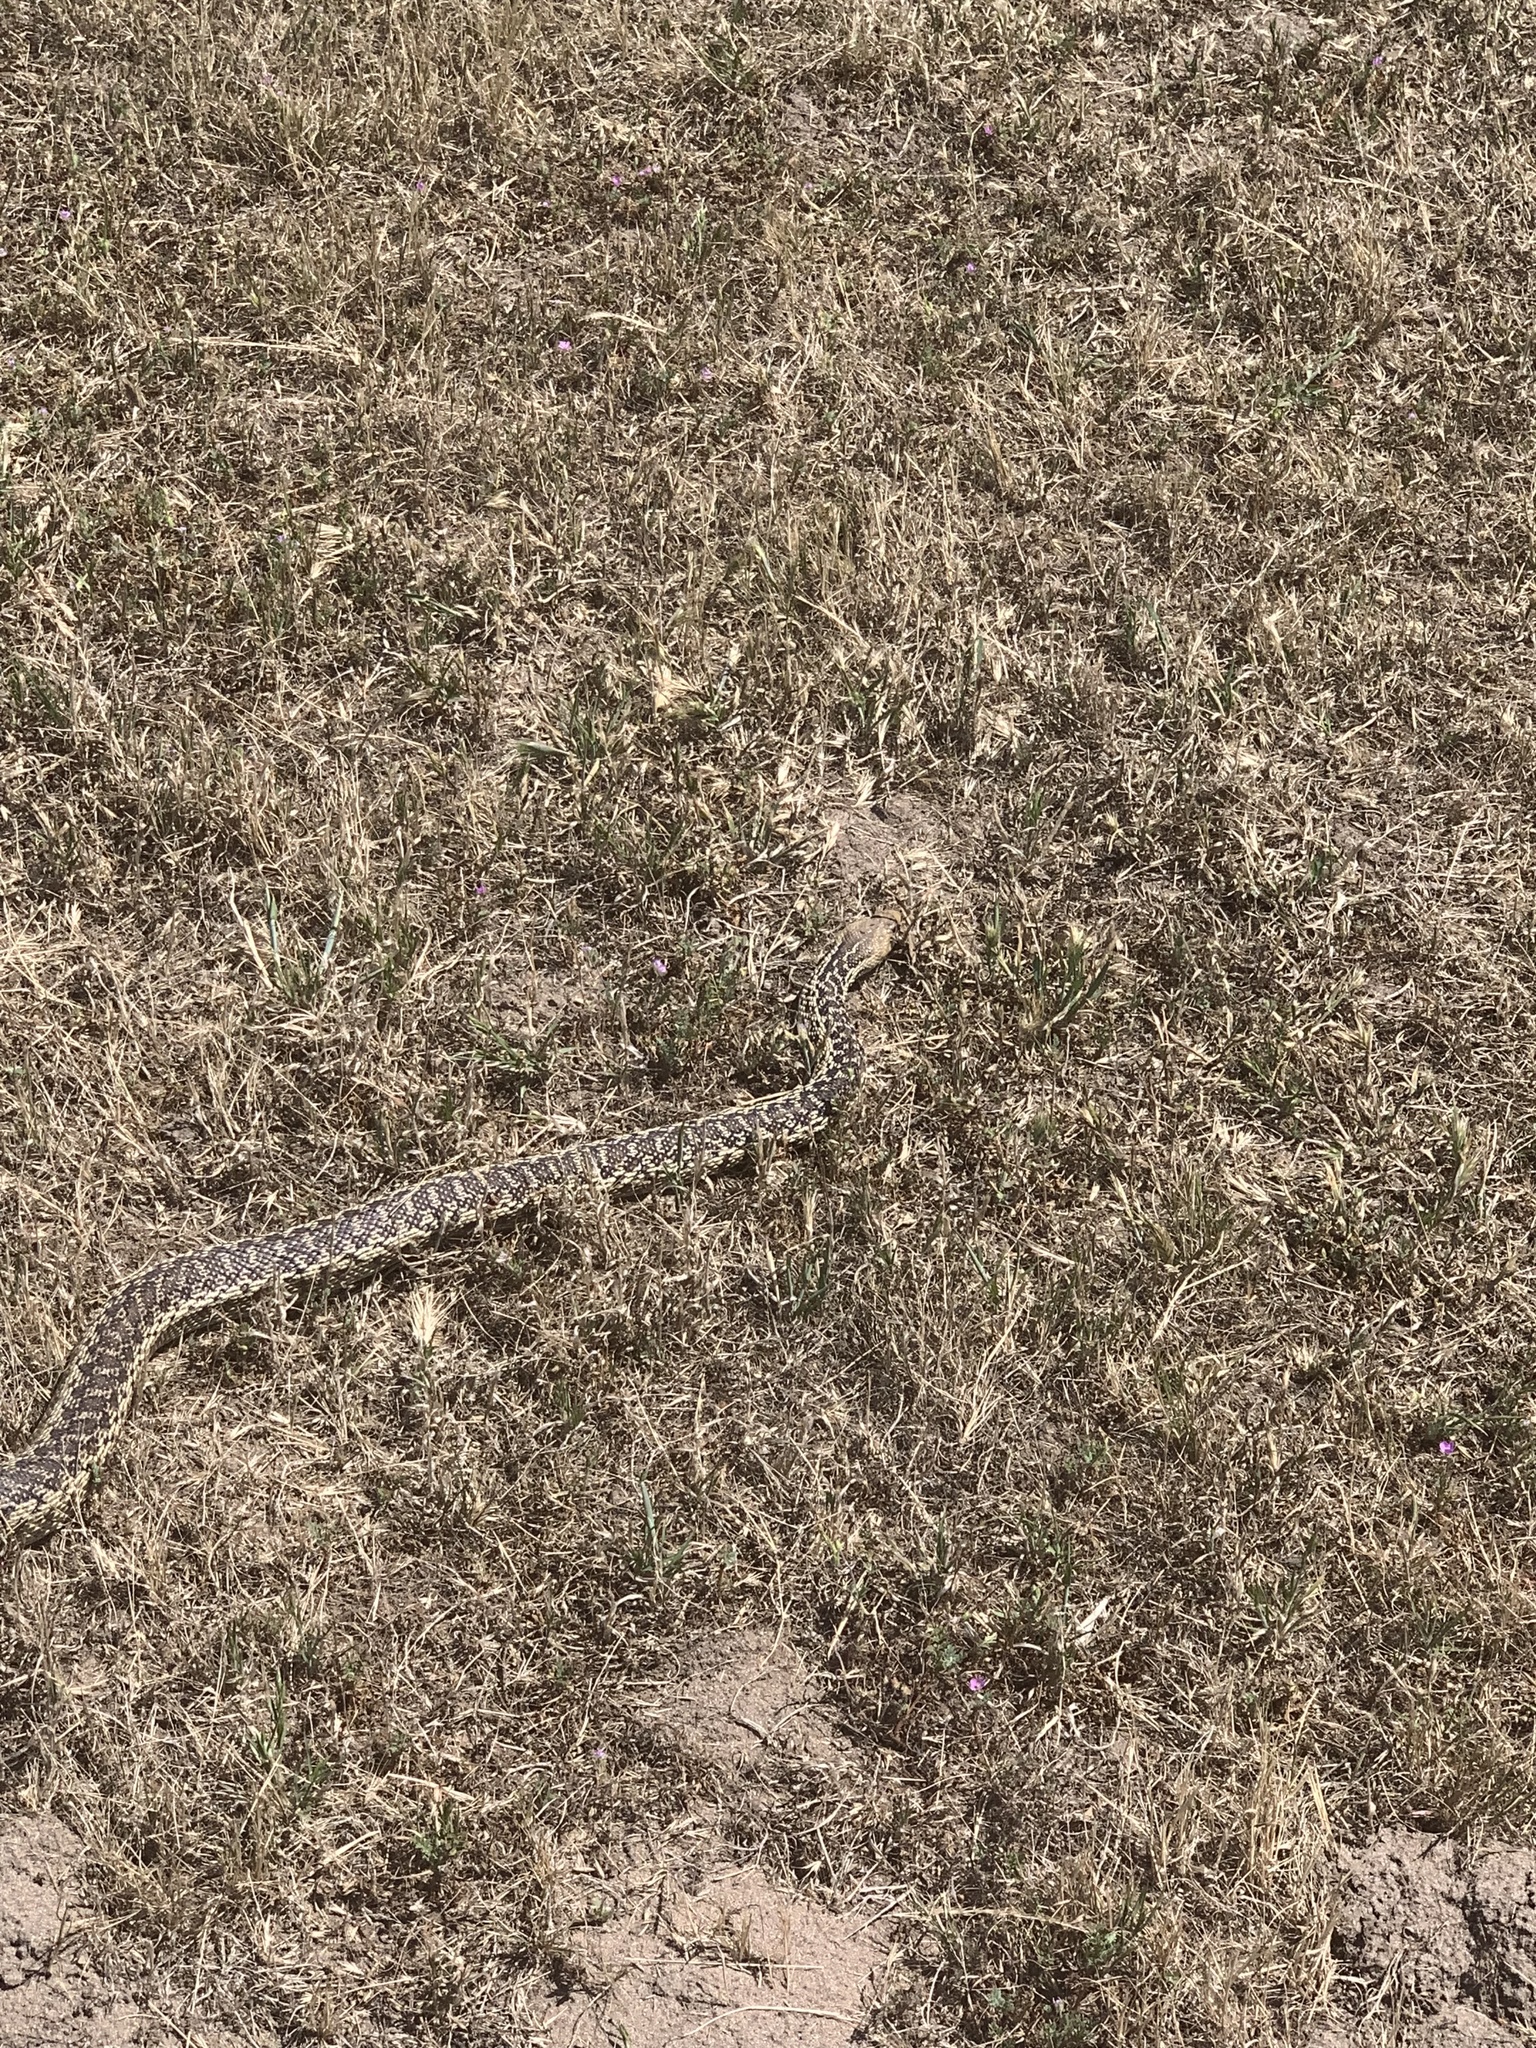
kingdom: Animalia
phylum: Chordata
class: Squamata
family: Colubridae
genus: Pituophis
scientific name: Pituophis catenifer
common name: Gopher snake
